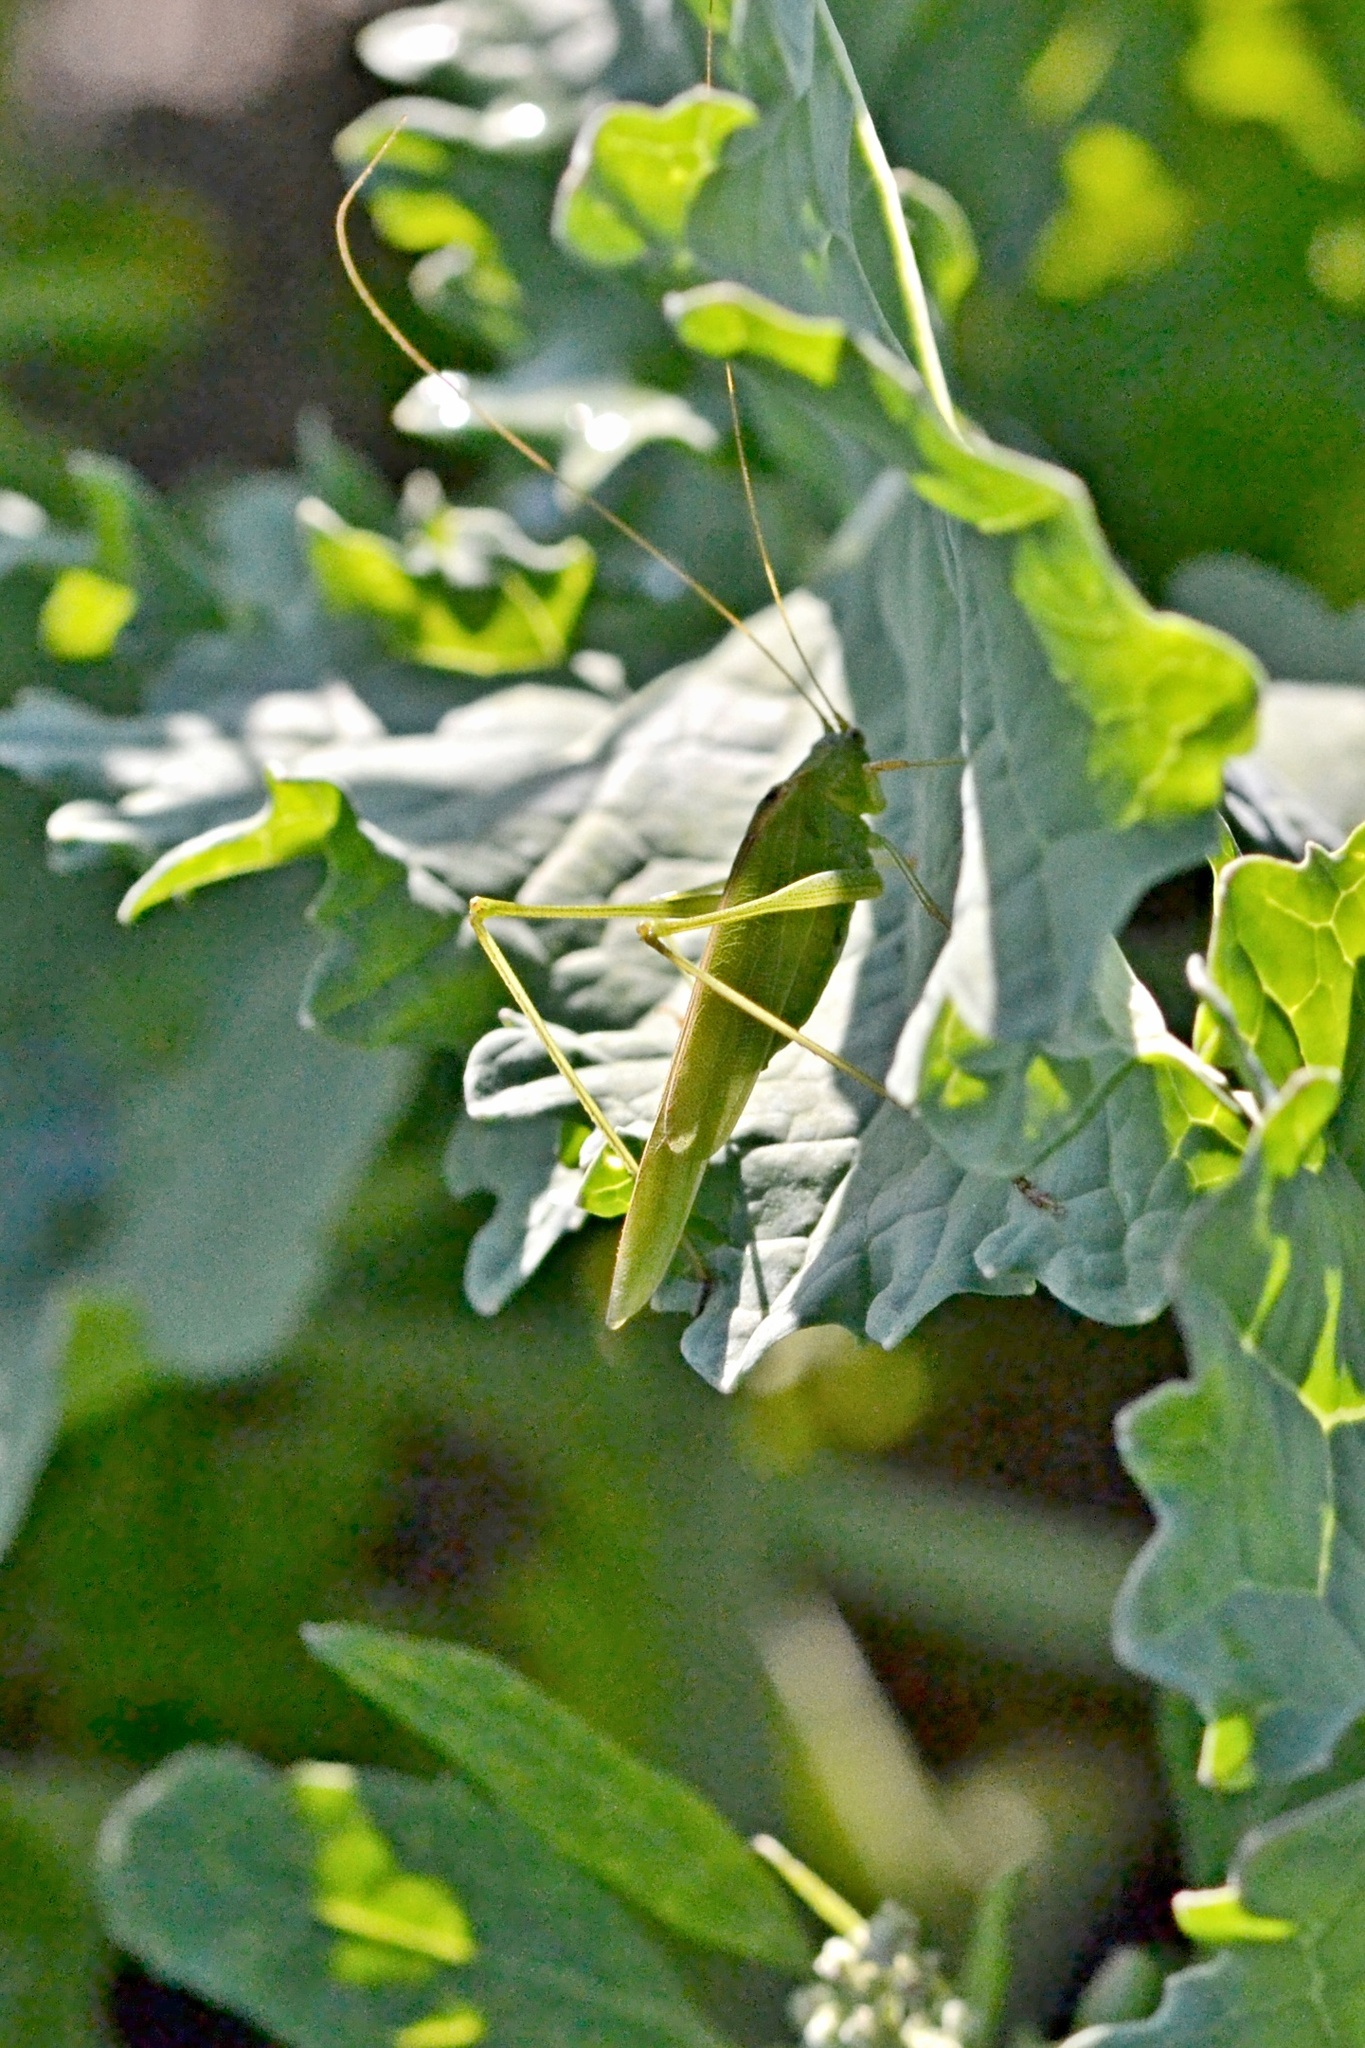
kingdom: Animalia
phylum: Arthropoda
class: Insecta
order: Orthoptera
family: Tettigoniidae
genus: Phaneroptera
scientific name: Phaneroptera nana
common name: Southern sickle bush-cricket
